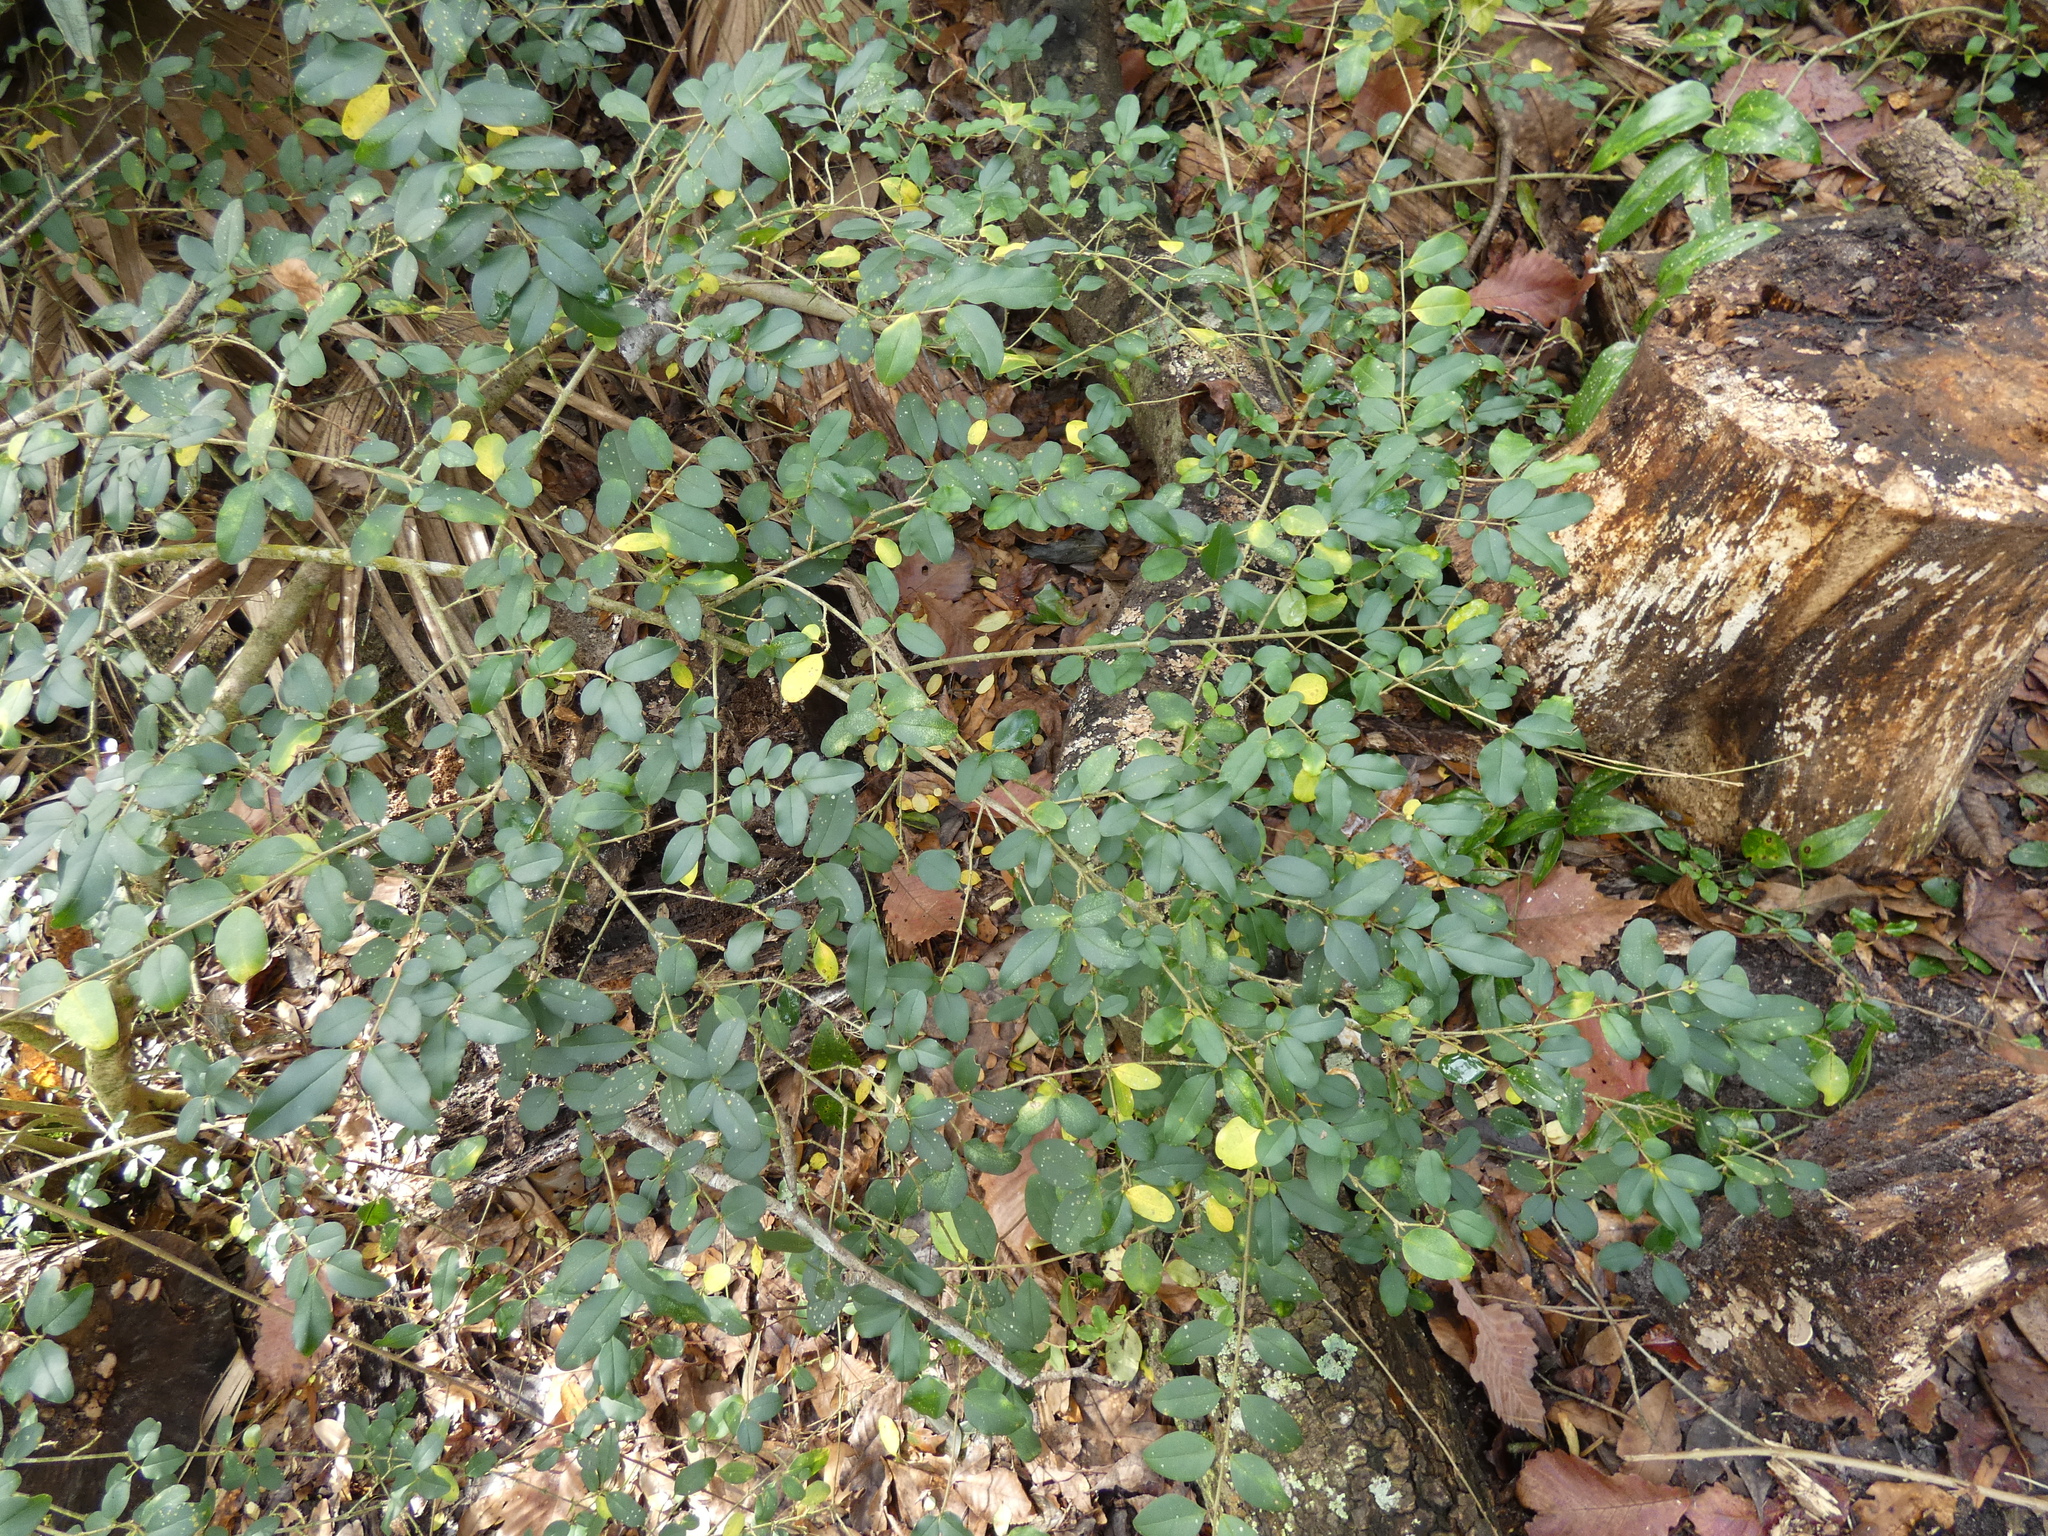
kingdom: Plantae
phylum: Tracheophyta
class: Magnoliopsida
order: Lamiales
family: Oleaceae
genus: Ligustrum
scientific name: Ligustrum sinense
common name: Chinese privet
